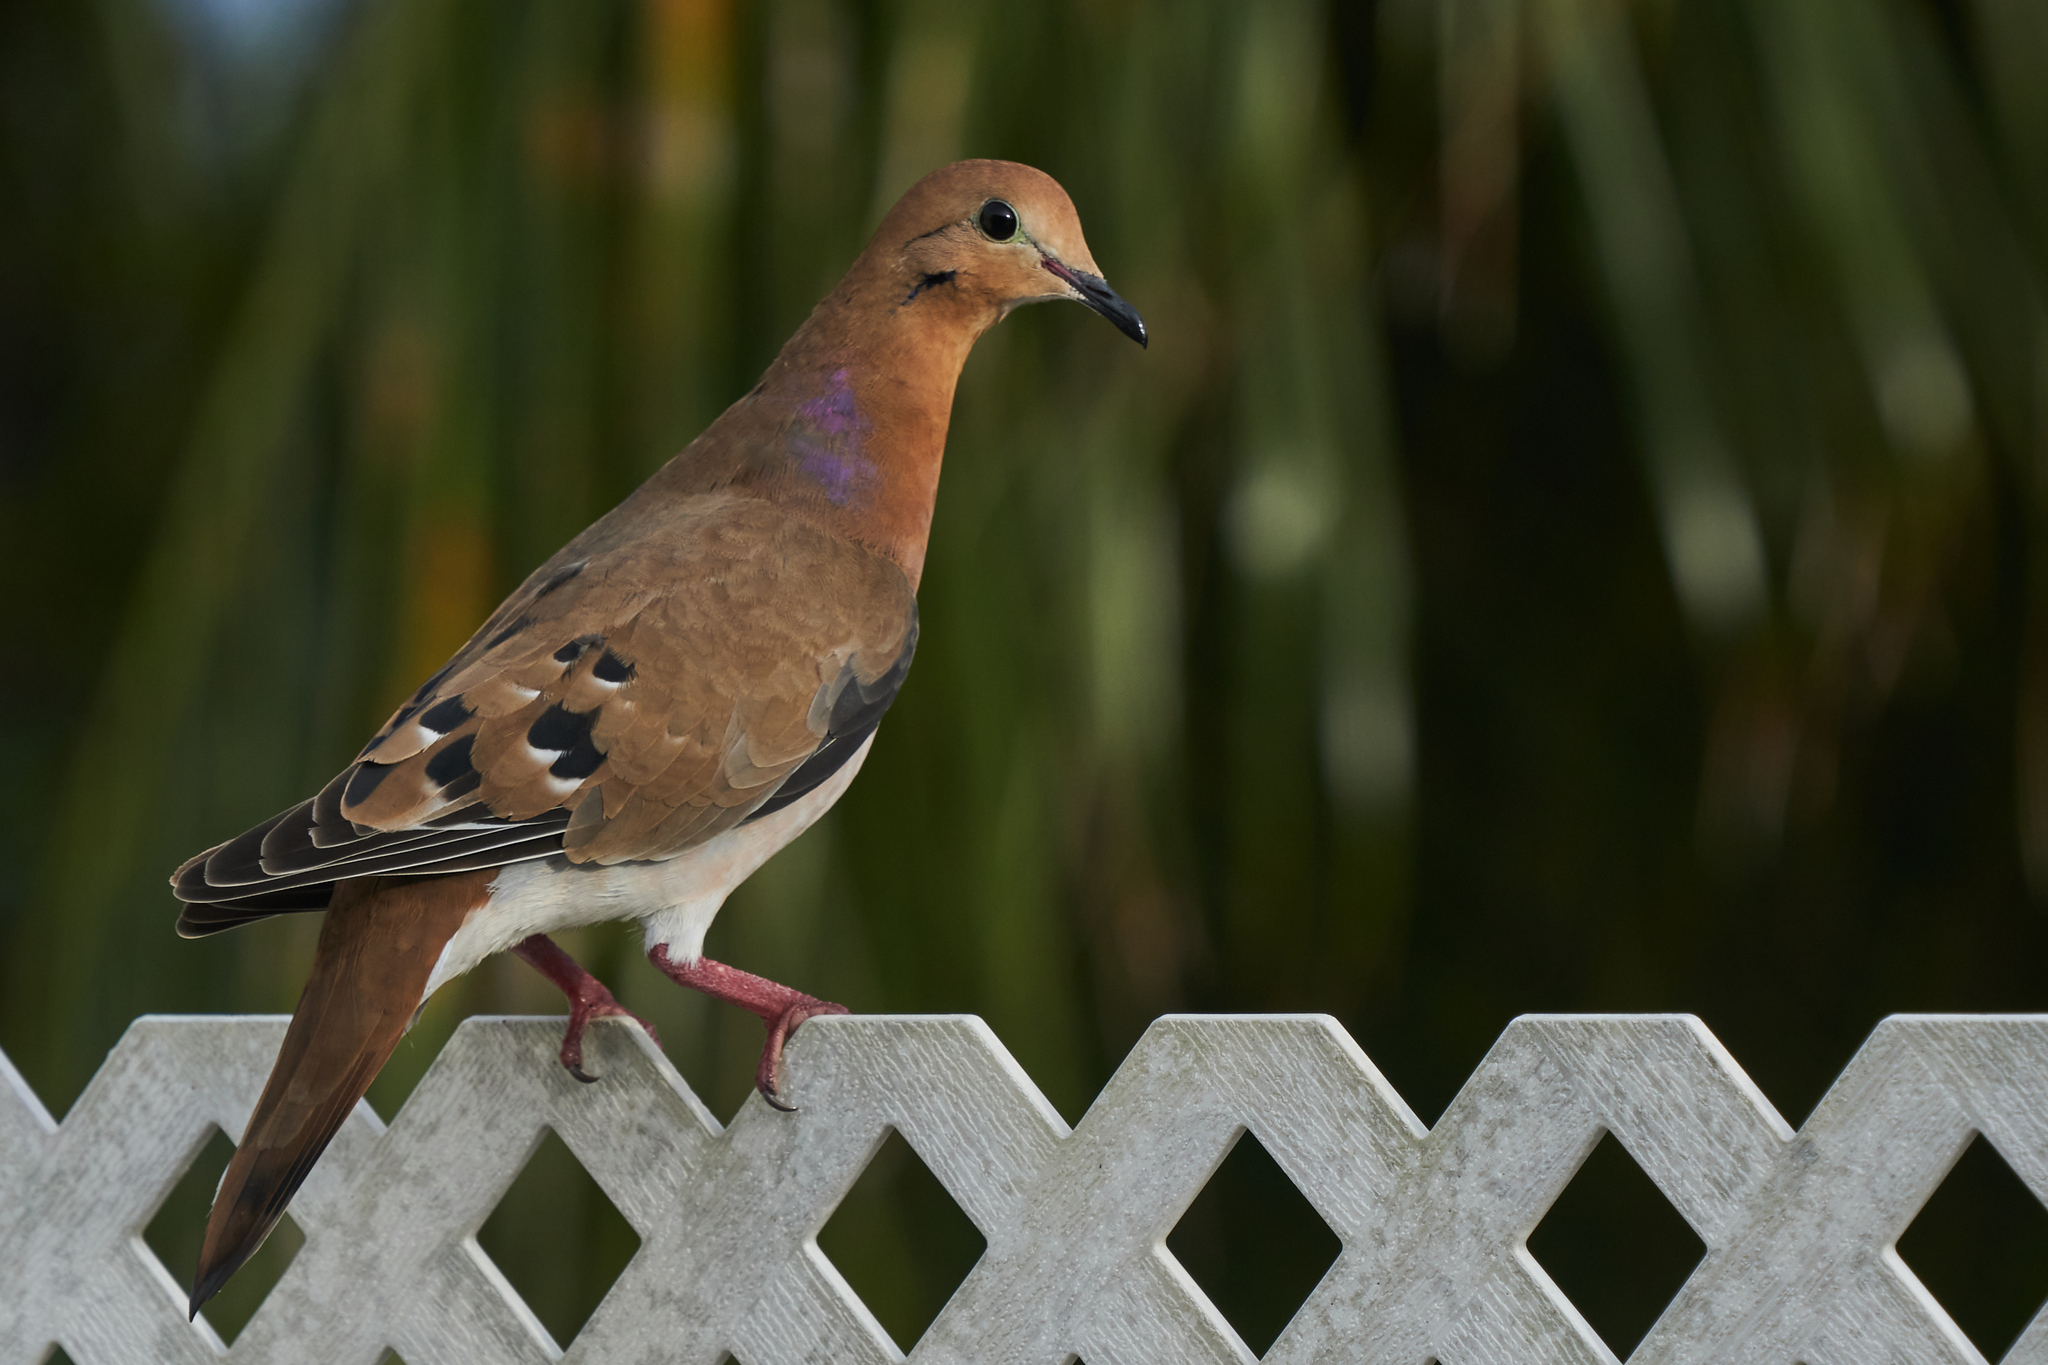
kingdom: Animalia
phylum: Chordata
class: Aves
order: Columbiformes
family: Columbidae
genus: Zenaida
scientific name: Zenaida aurita
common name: Zenaida dove
